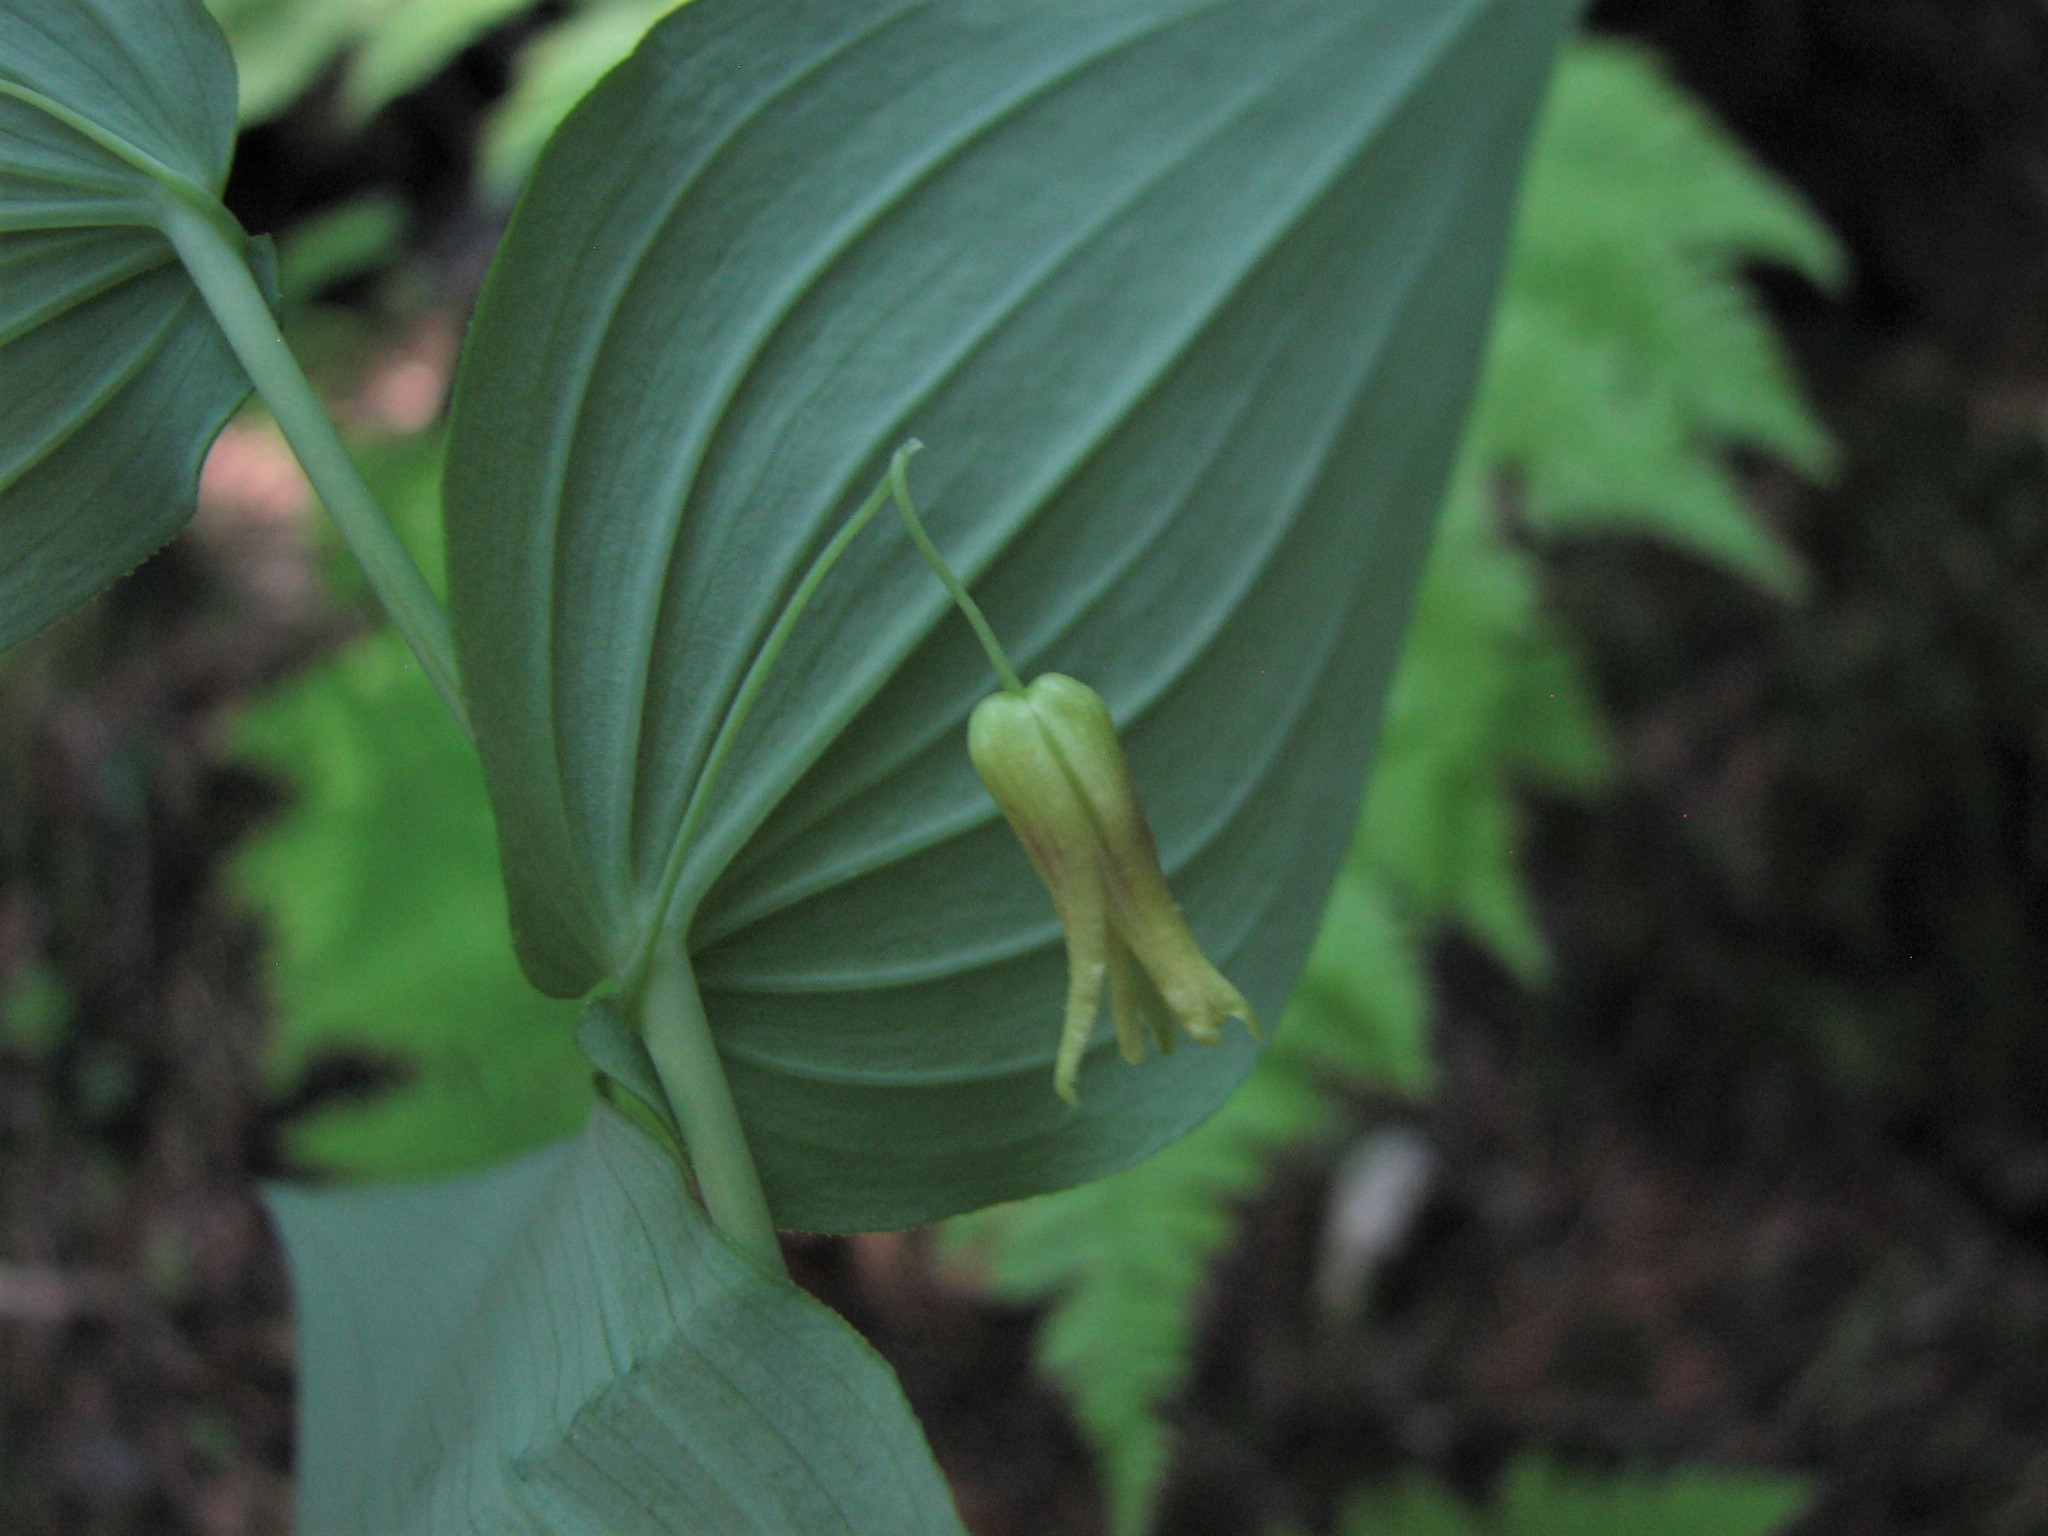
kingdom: Plantae
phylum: Tracheophyta
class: Liliopsida
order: Liliales
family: Liliaceae
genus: Streptopus
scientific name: Streptopus amplexifolius
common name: Clasp twisted stalk
